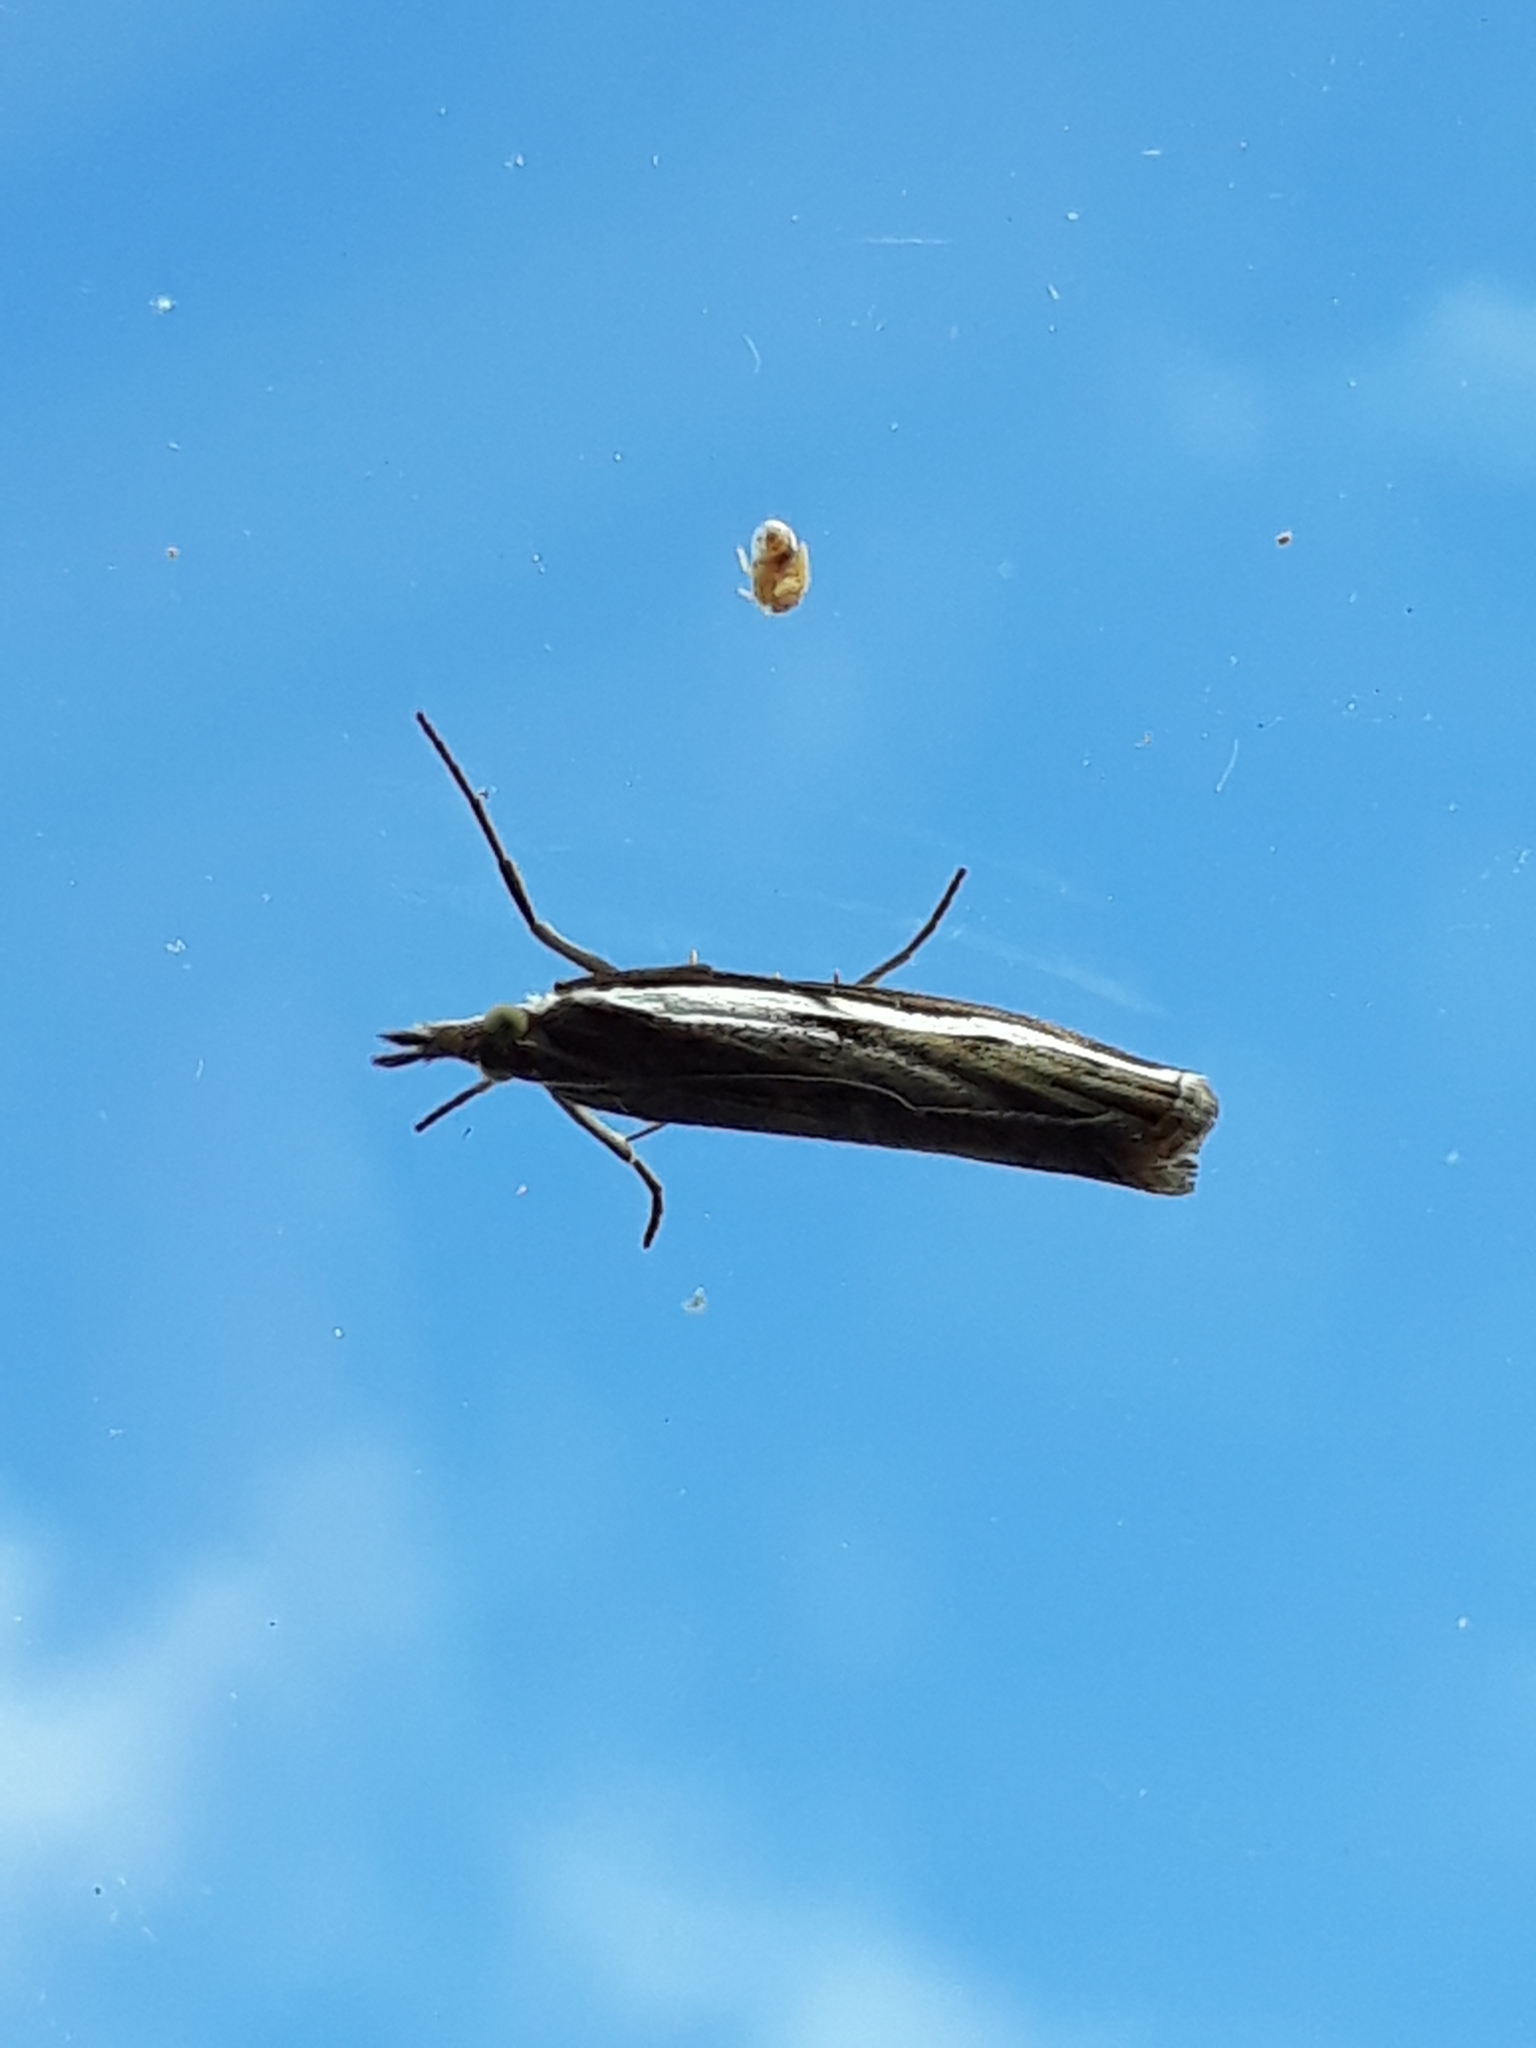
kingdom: Animalia
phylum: Arthropoda
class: Insecta
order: Lepidoptera
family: Crambidae
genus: Orocrambus
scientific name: Orocrambus flexuosellus
